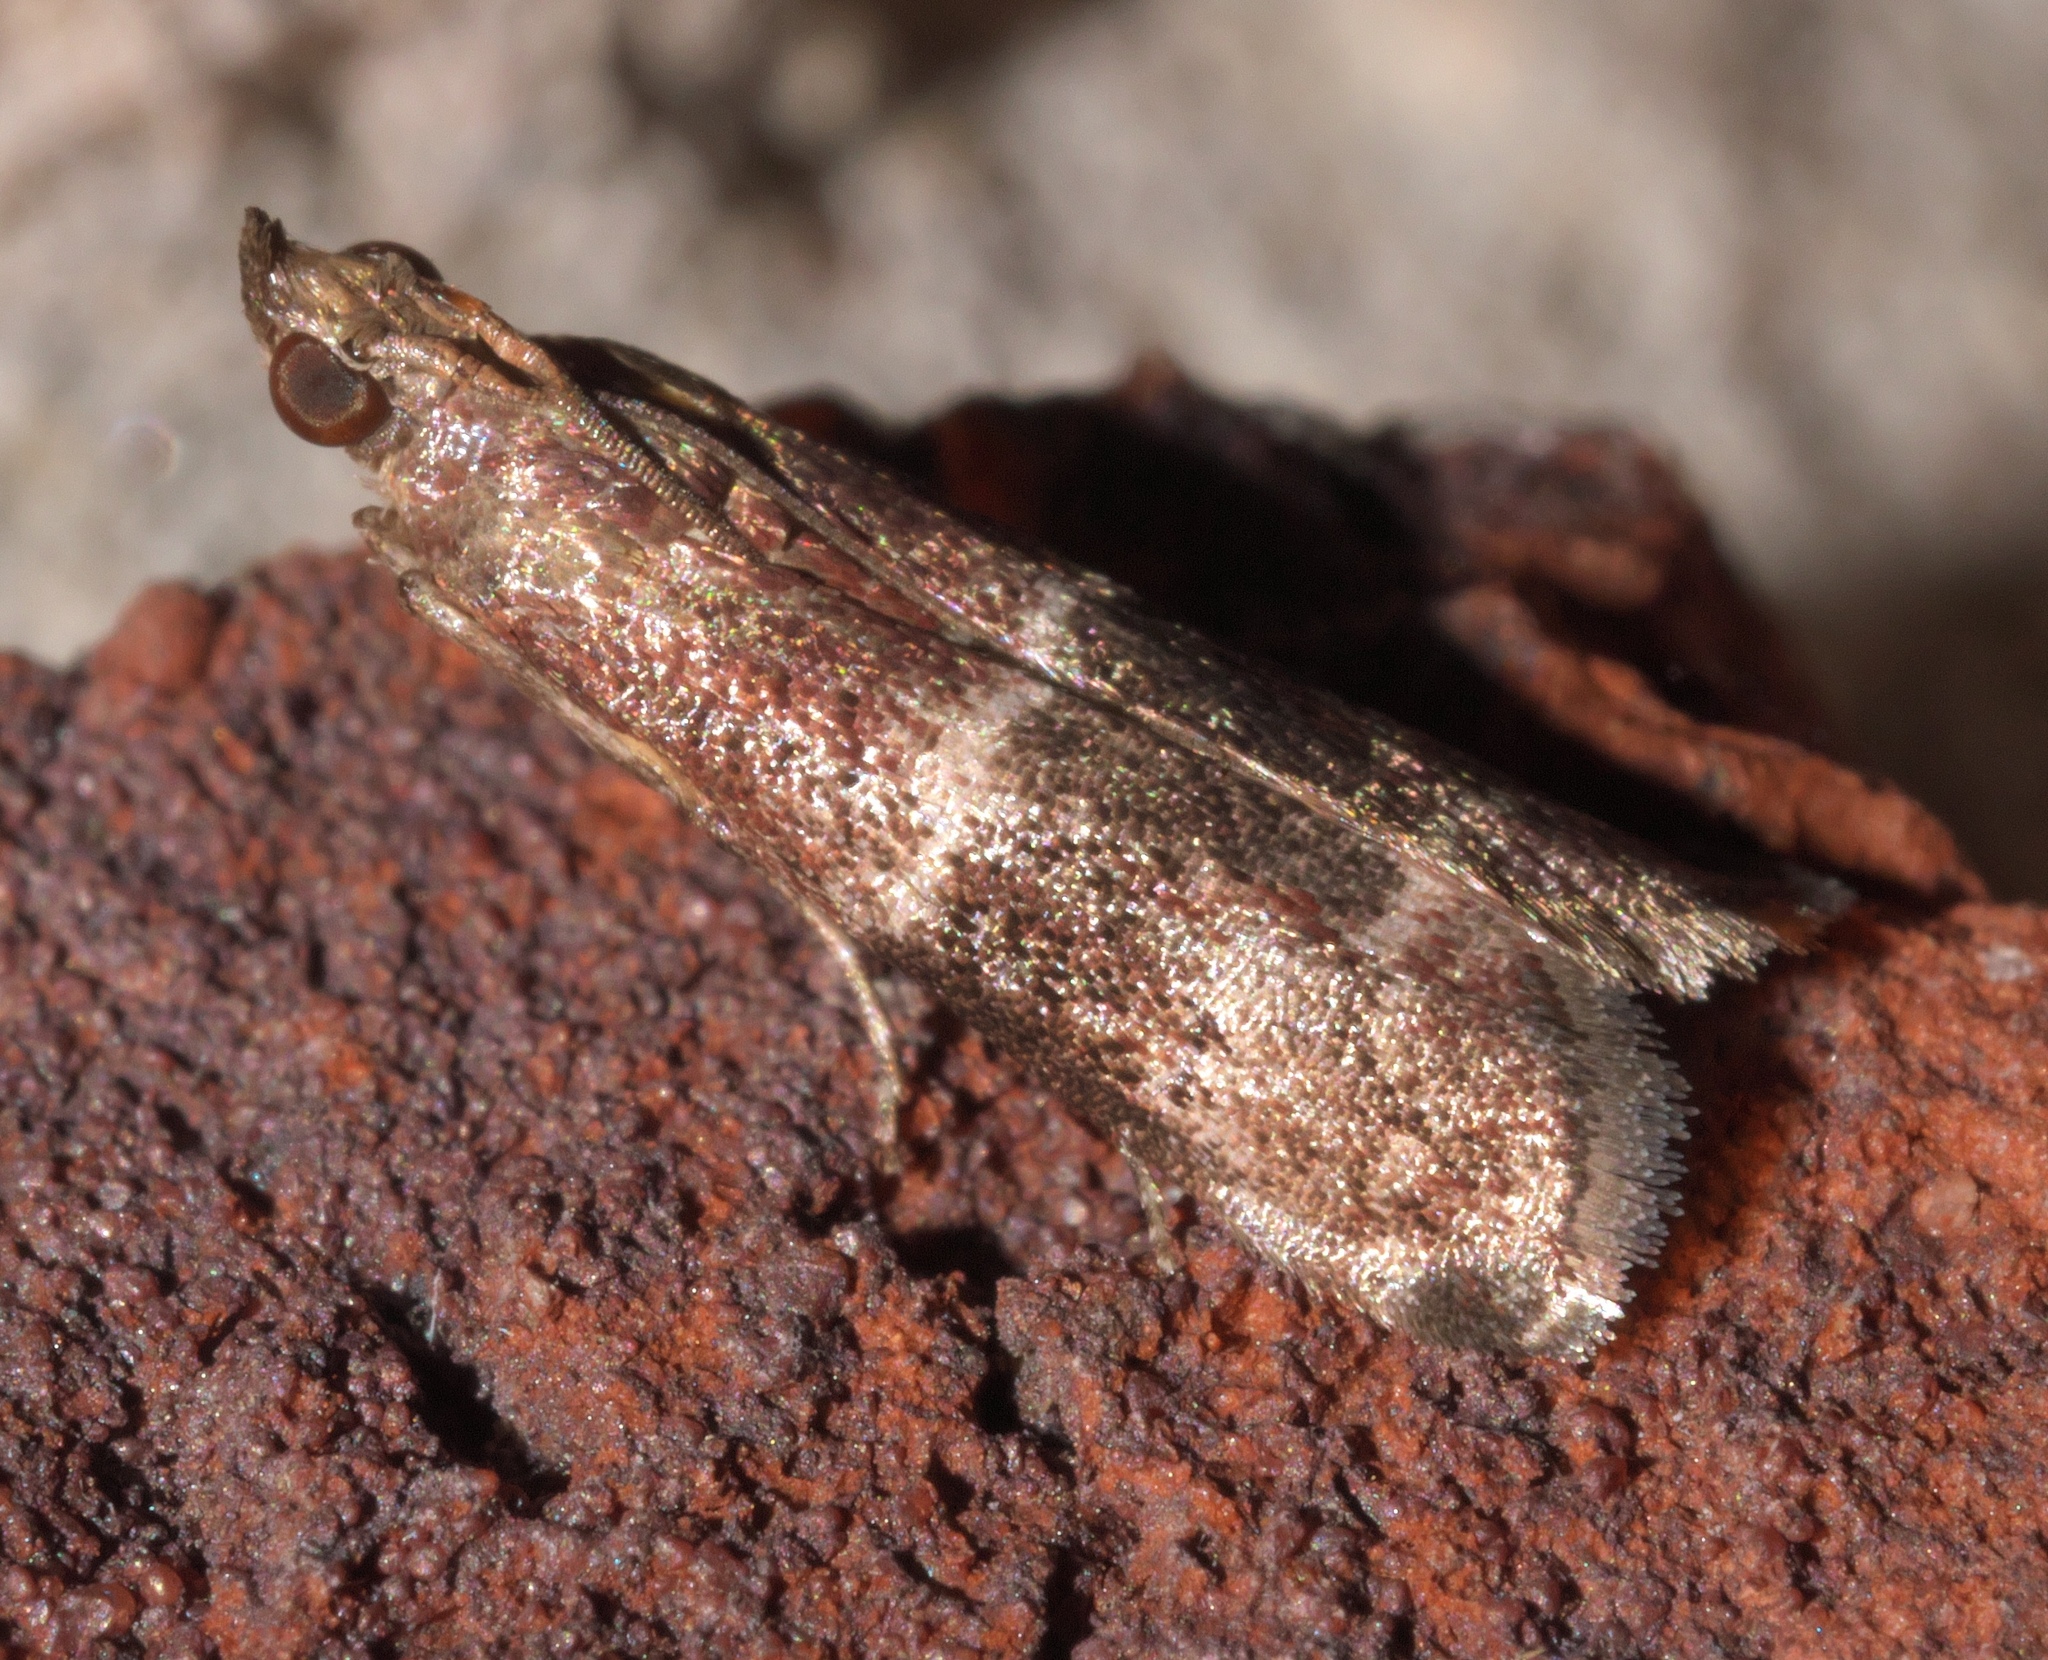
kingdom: Animalia
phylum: Arthropoda
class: Insecta
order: Lepidoptera
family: Pyralidae
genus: Moodna
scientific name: Moodna ostrinella
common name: Darker moodna moth
